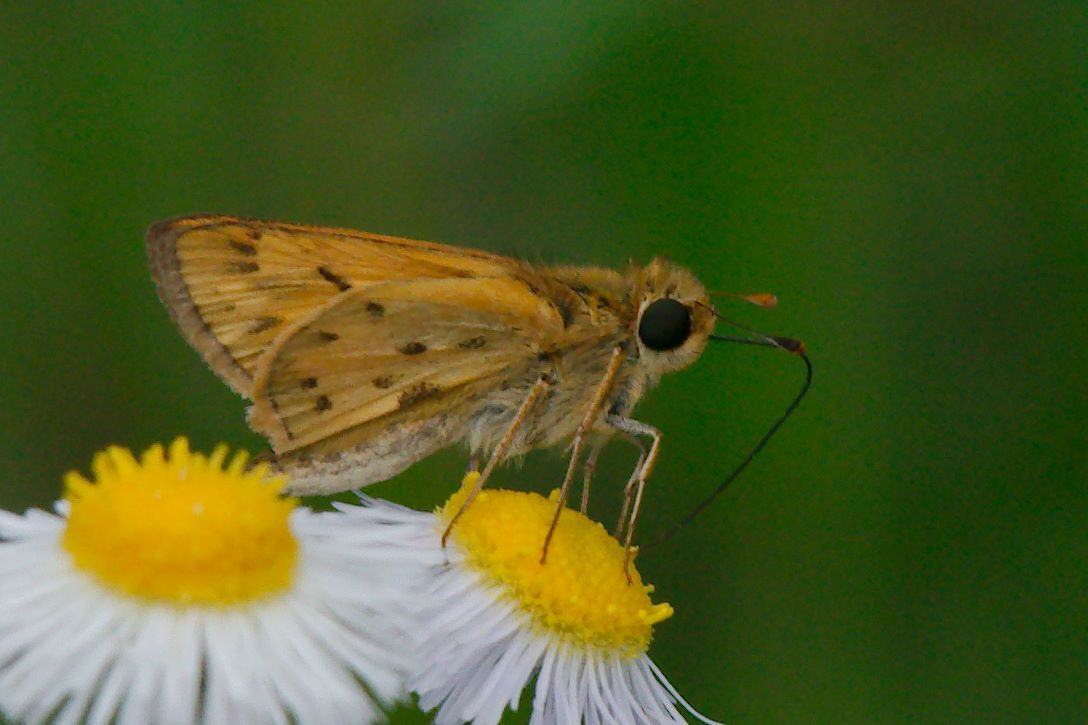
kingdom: Animalia
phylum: Arthropoda
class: Insecta
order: Lepidoptera
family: Hesperiidae
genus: Hylephila
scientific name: Hylephila phyleus
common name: Fiery skipper
